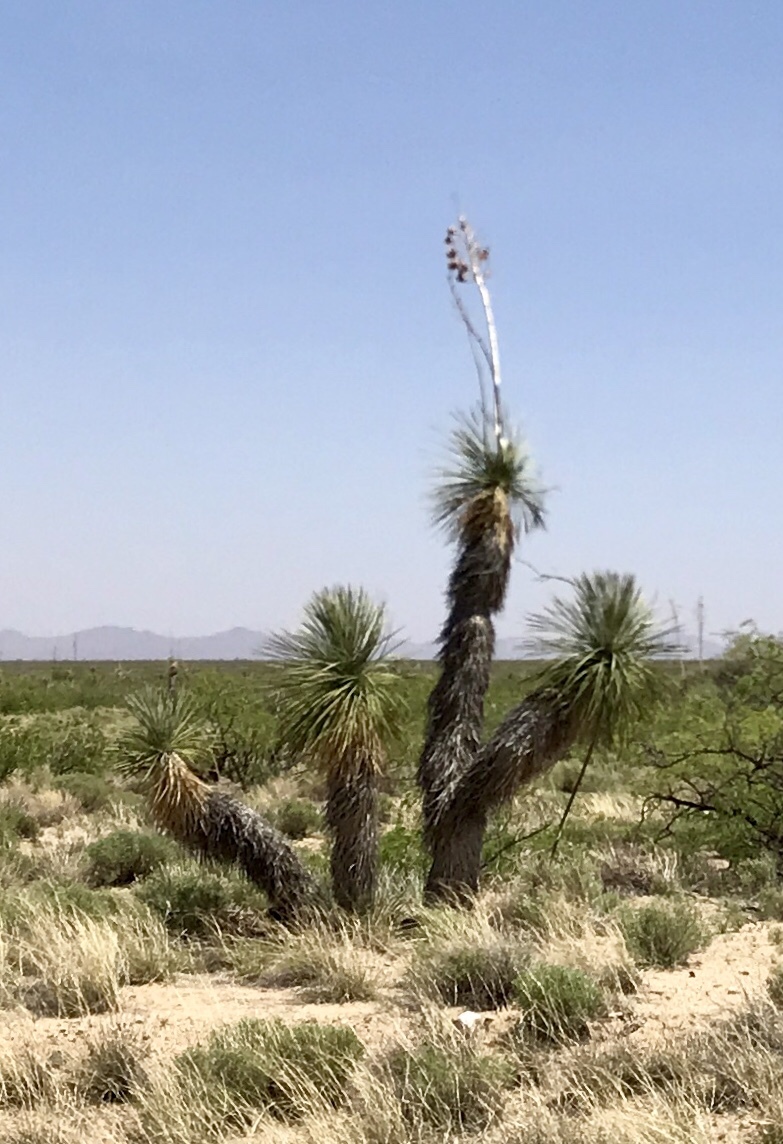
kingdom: Plantae
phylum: Tracheophyta
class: Liliopsida
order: Asparagales
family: Asparagaceae
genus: Yucca
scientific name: Yucca elata
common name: Palmella
